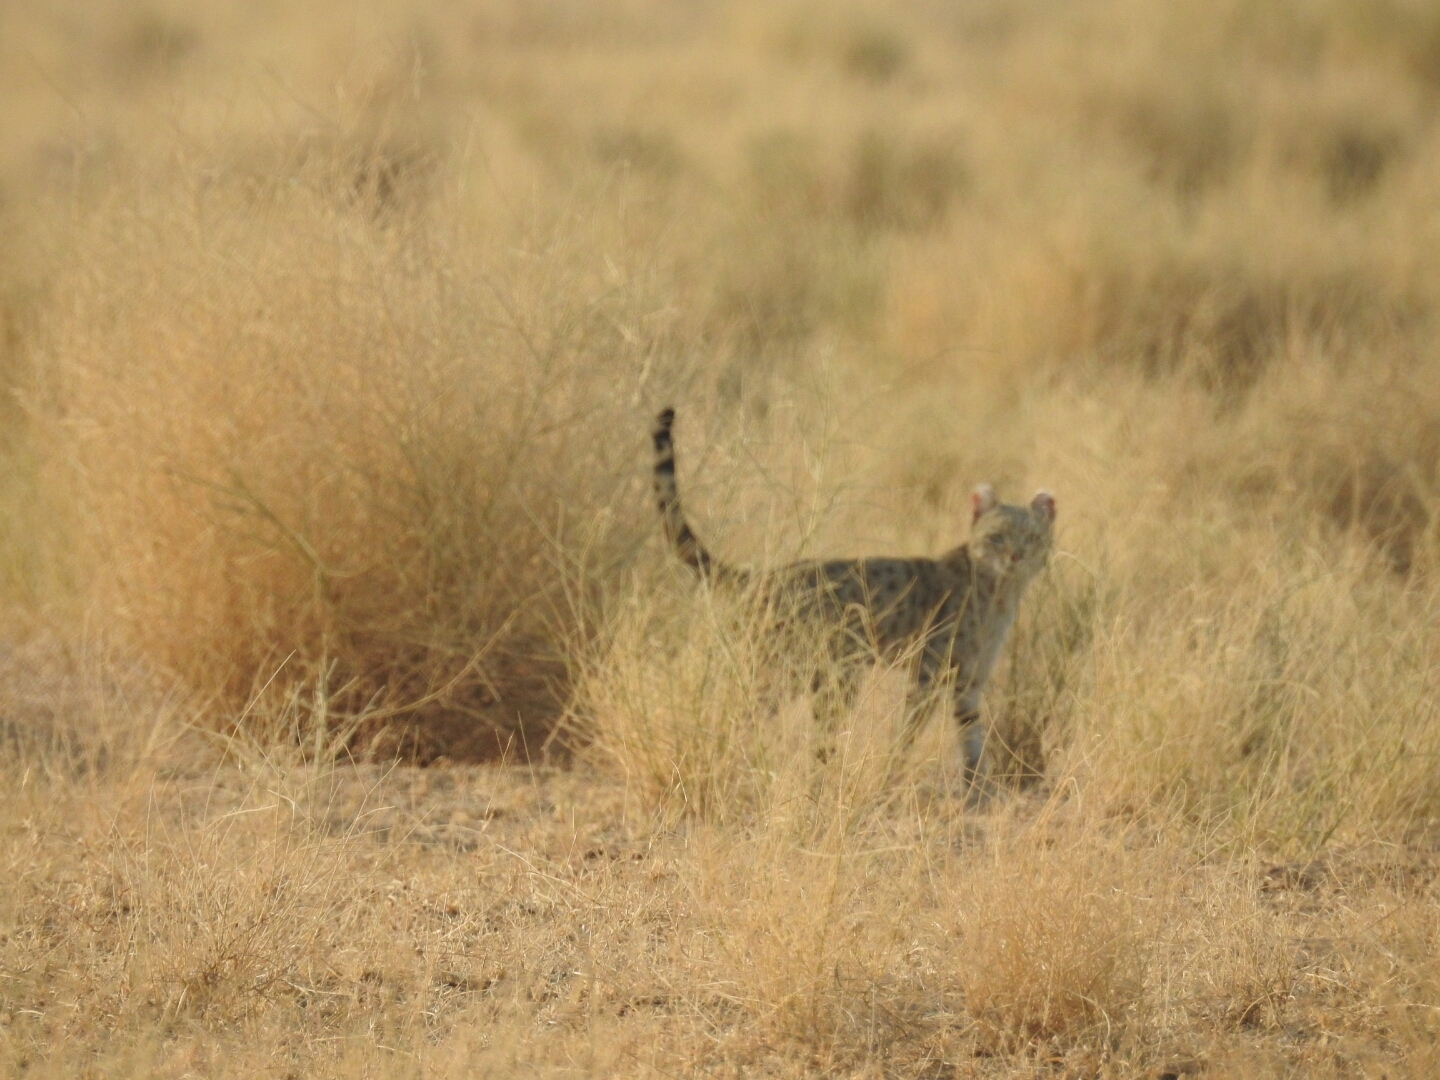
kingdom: Animalia
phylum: Chordata
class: Mammalia
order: Carnivora
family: Felidae
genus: Felis
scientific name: Felis silvestris
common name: Wildcat
